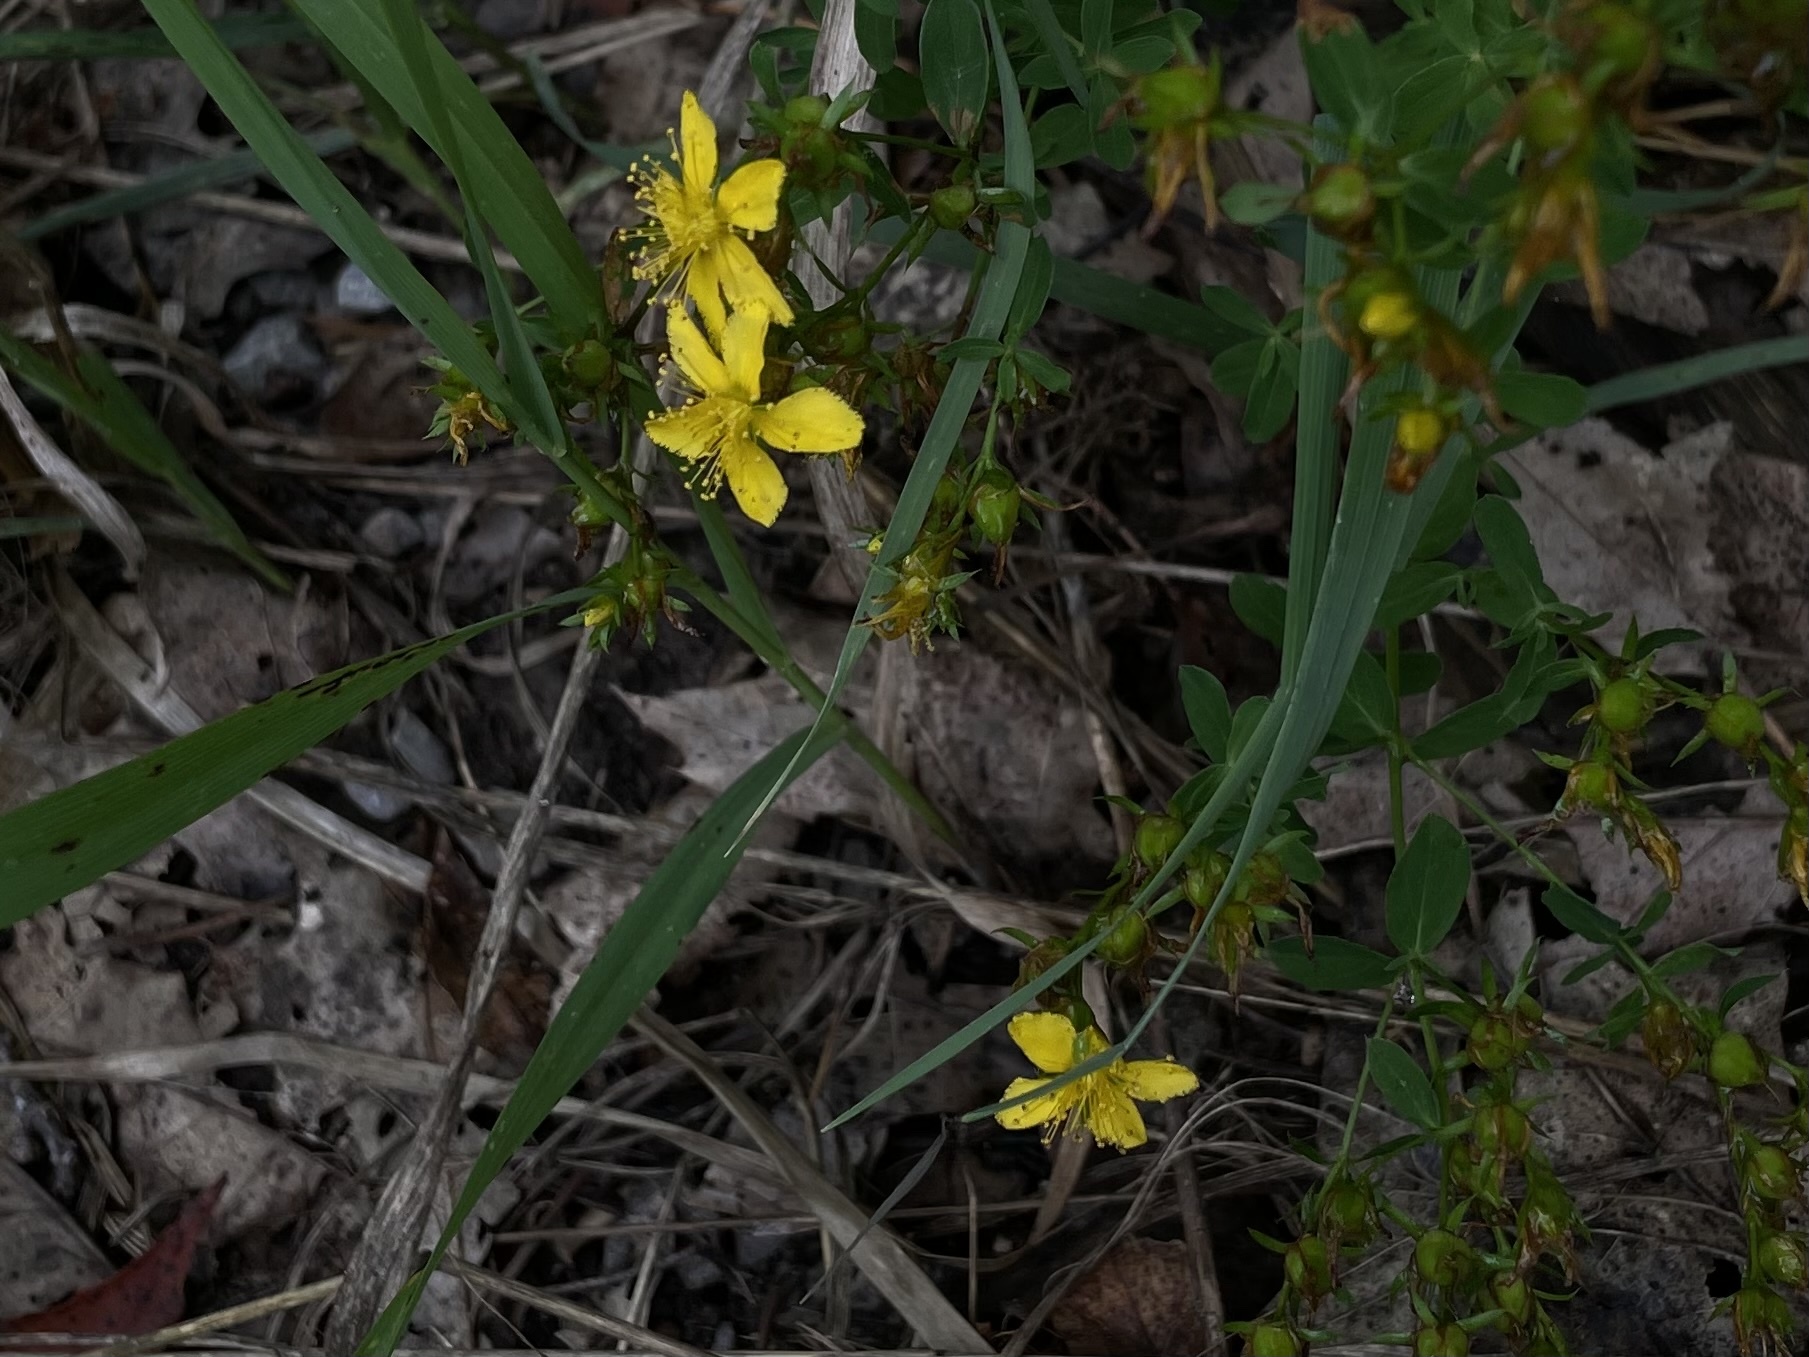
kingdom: Plantae
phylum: Tracheophyta
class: Magnoliopsida
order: Malpighiales
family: Hypericaceae
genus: Hypericum
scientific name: Hypericum perforatum
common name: Common st. johnswort
